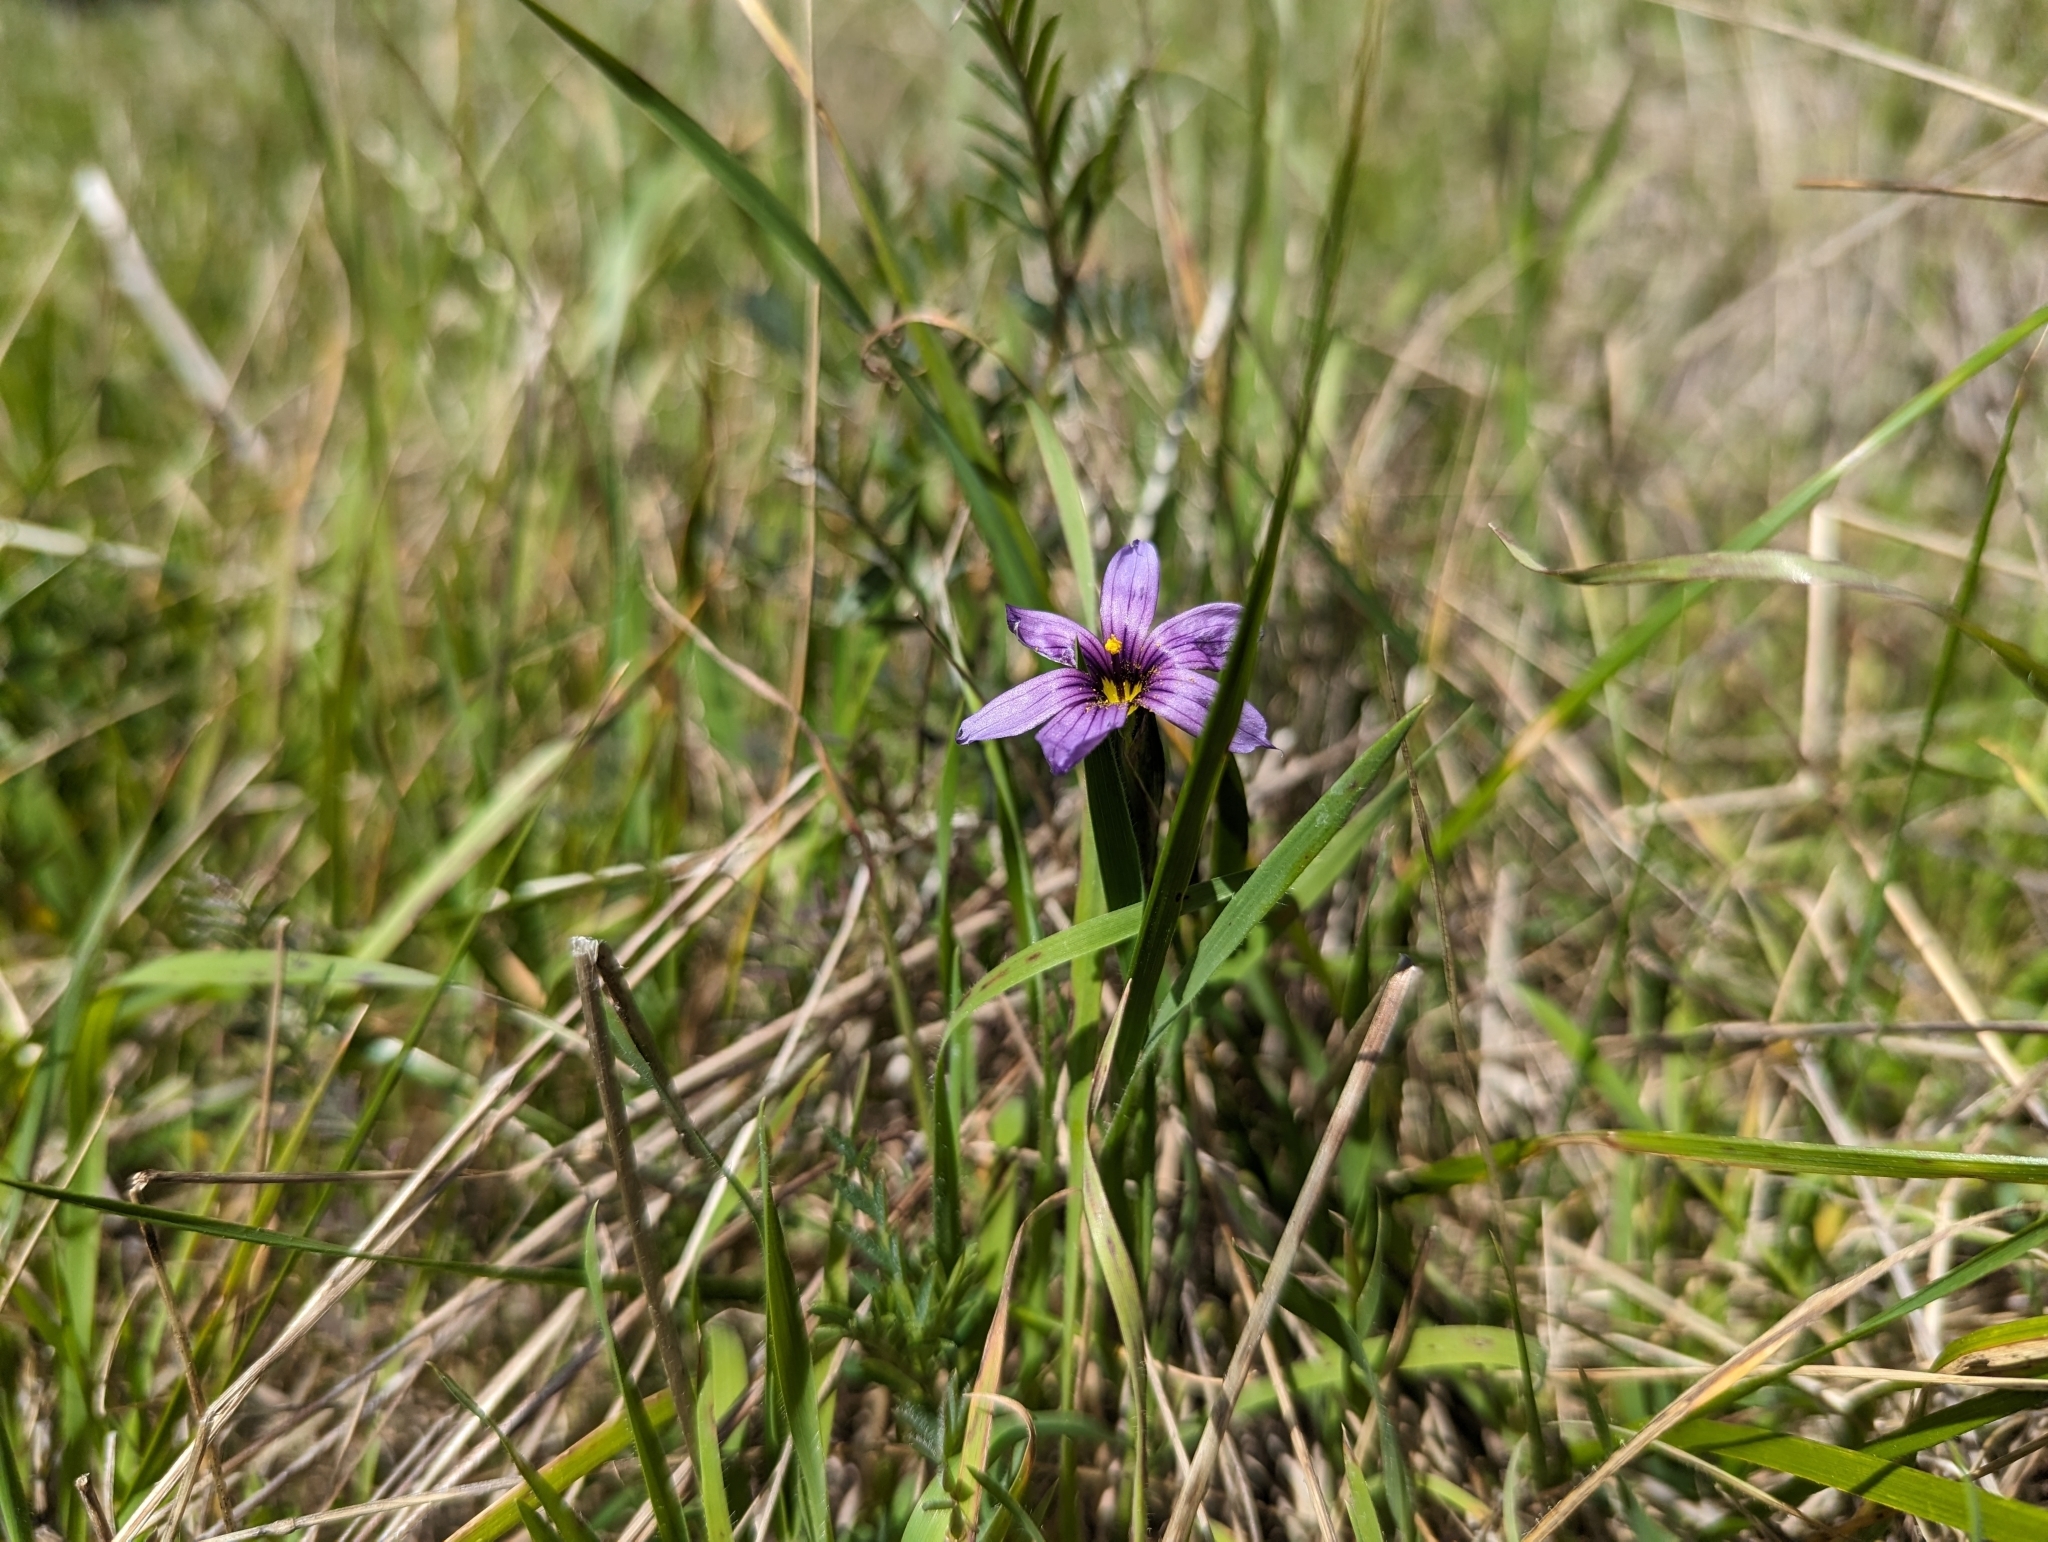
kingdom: Plantae
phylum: Tracheophyta
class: Liliopsida
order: Asparagales
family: Iridaceae
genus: Sisyrinchium
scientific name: Sisyrinchium bellum
